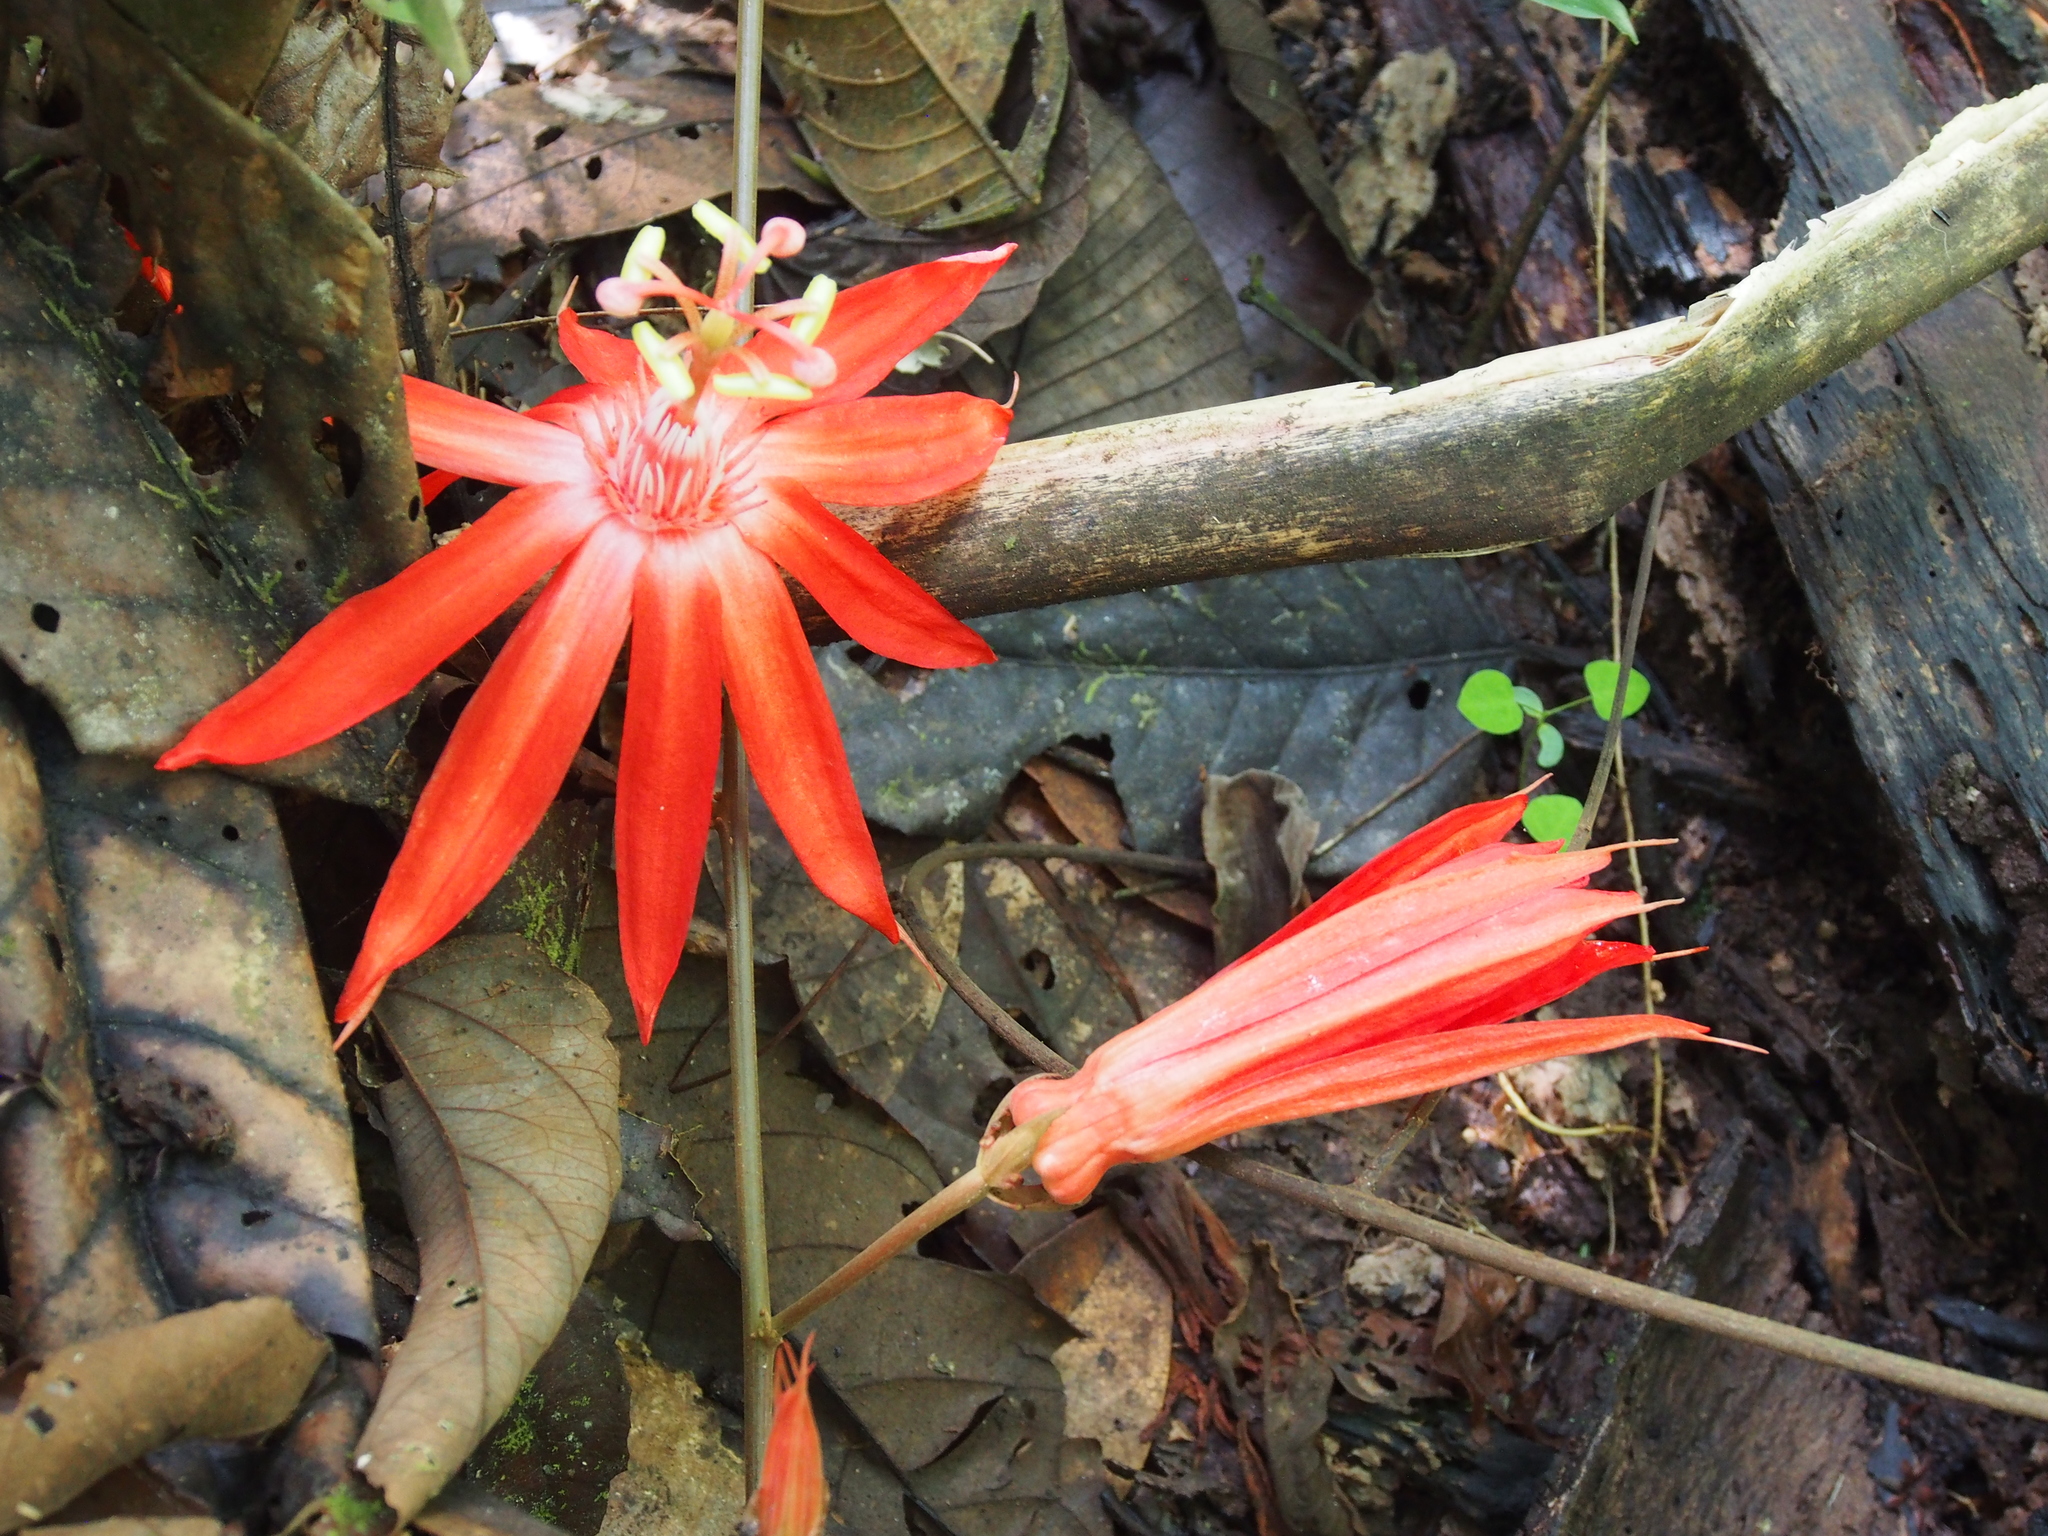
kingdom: Plantae
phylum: Tracheophyta
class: Magnoliopsida
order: Malpighiales
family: Passifloraceae
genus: Passiflora
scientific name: Passiflora vitifolia
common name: Perfumed passionflower
